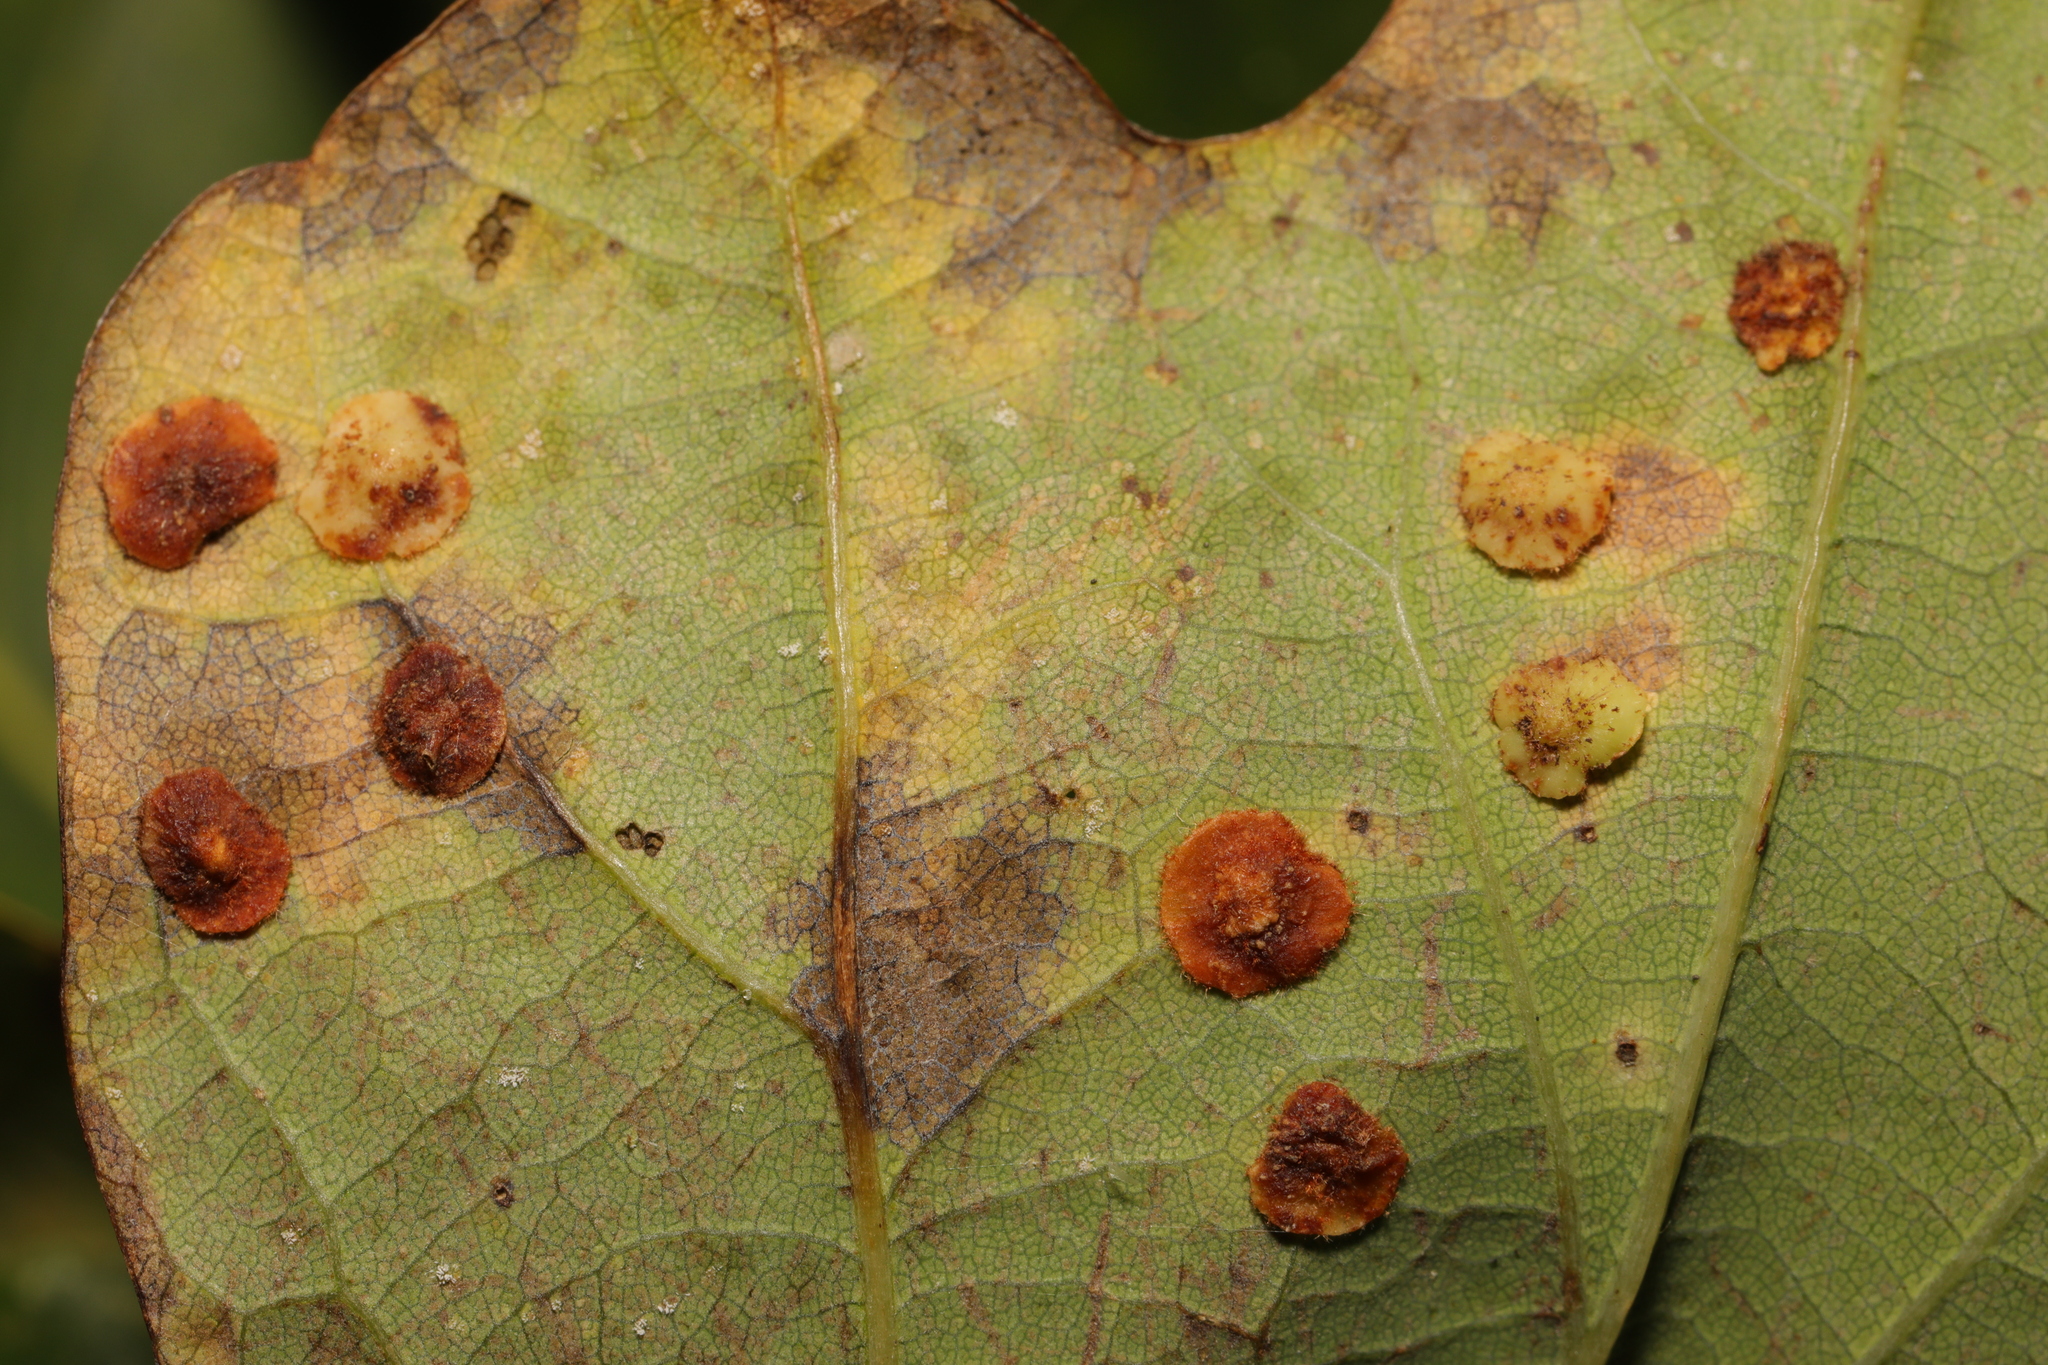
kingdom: Animalia
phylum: Arthropoda
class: Insecta
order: Hymenoptera
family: Cynipidae
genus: Neuroterus
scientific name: Neuroterus quercusbaccarum
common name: Common spangle gall
